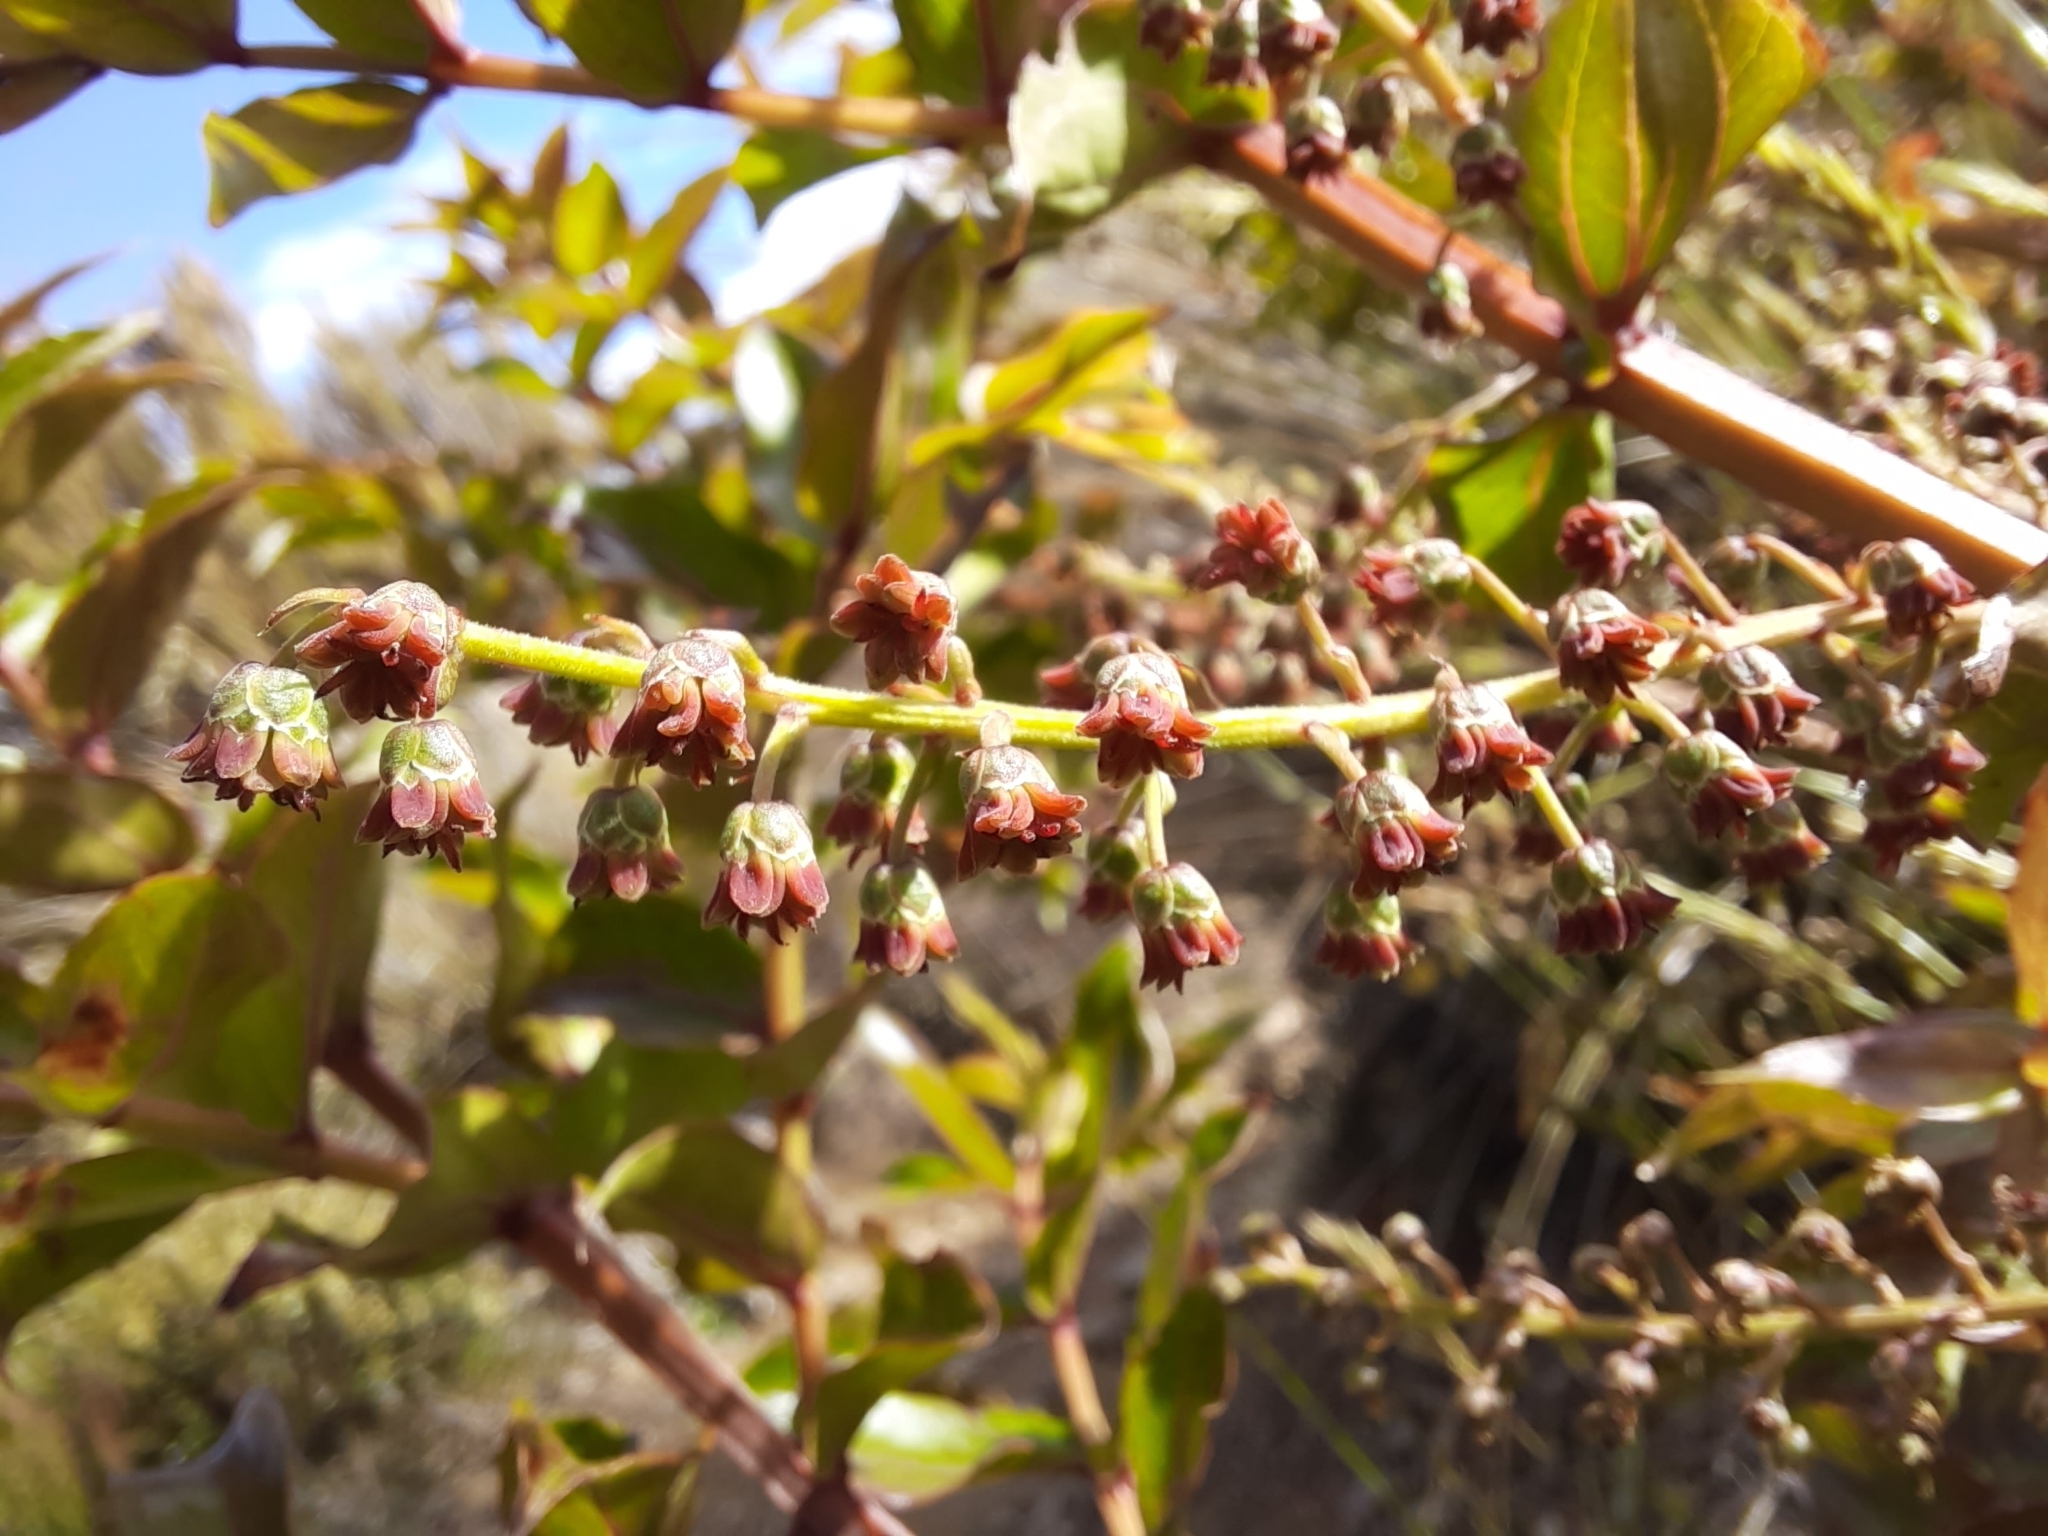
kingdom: Plantae
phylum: Tracheophyta
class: Magnoliopsida
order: Cucurbitales
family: Coriariaceae
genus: Coriaria
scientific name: Coriaria sarmentosa
